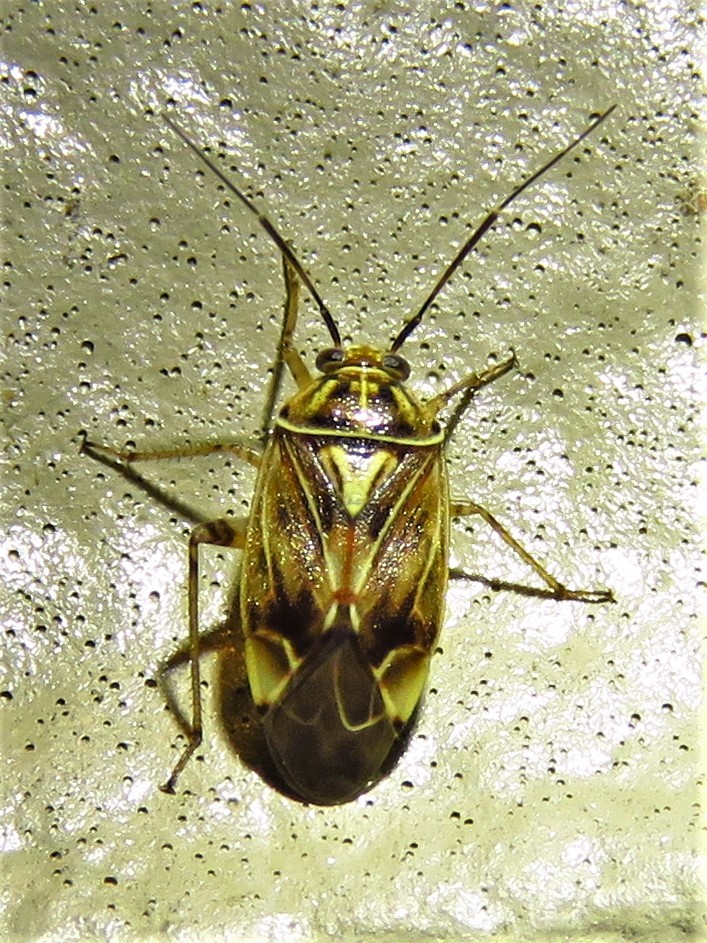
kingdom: Animalia
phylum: Arthropoda
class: Insecta
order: Hemiptera
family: Miridae
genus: Lygus
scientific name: Lygus lineolaris
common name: North american tarnished plant bug
